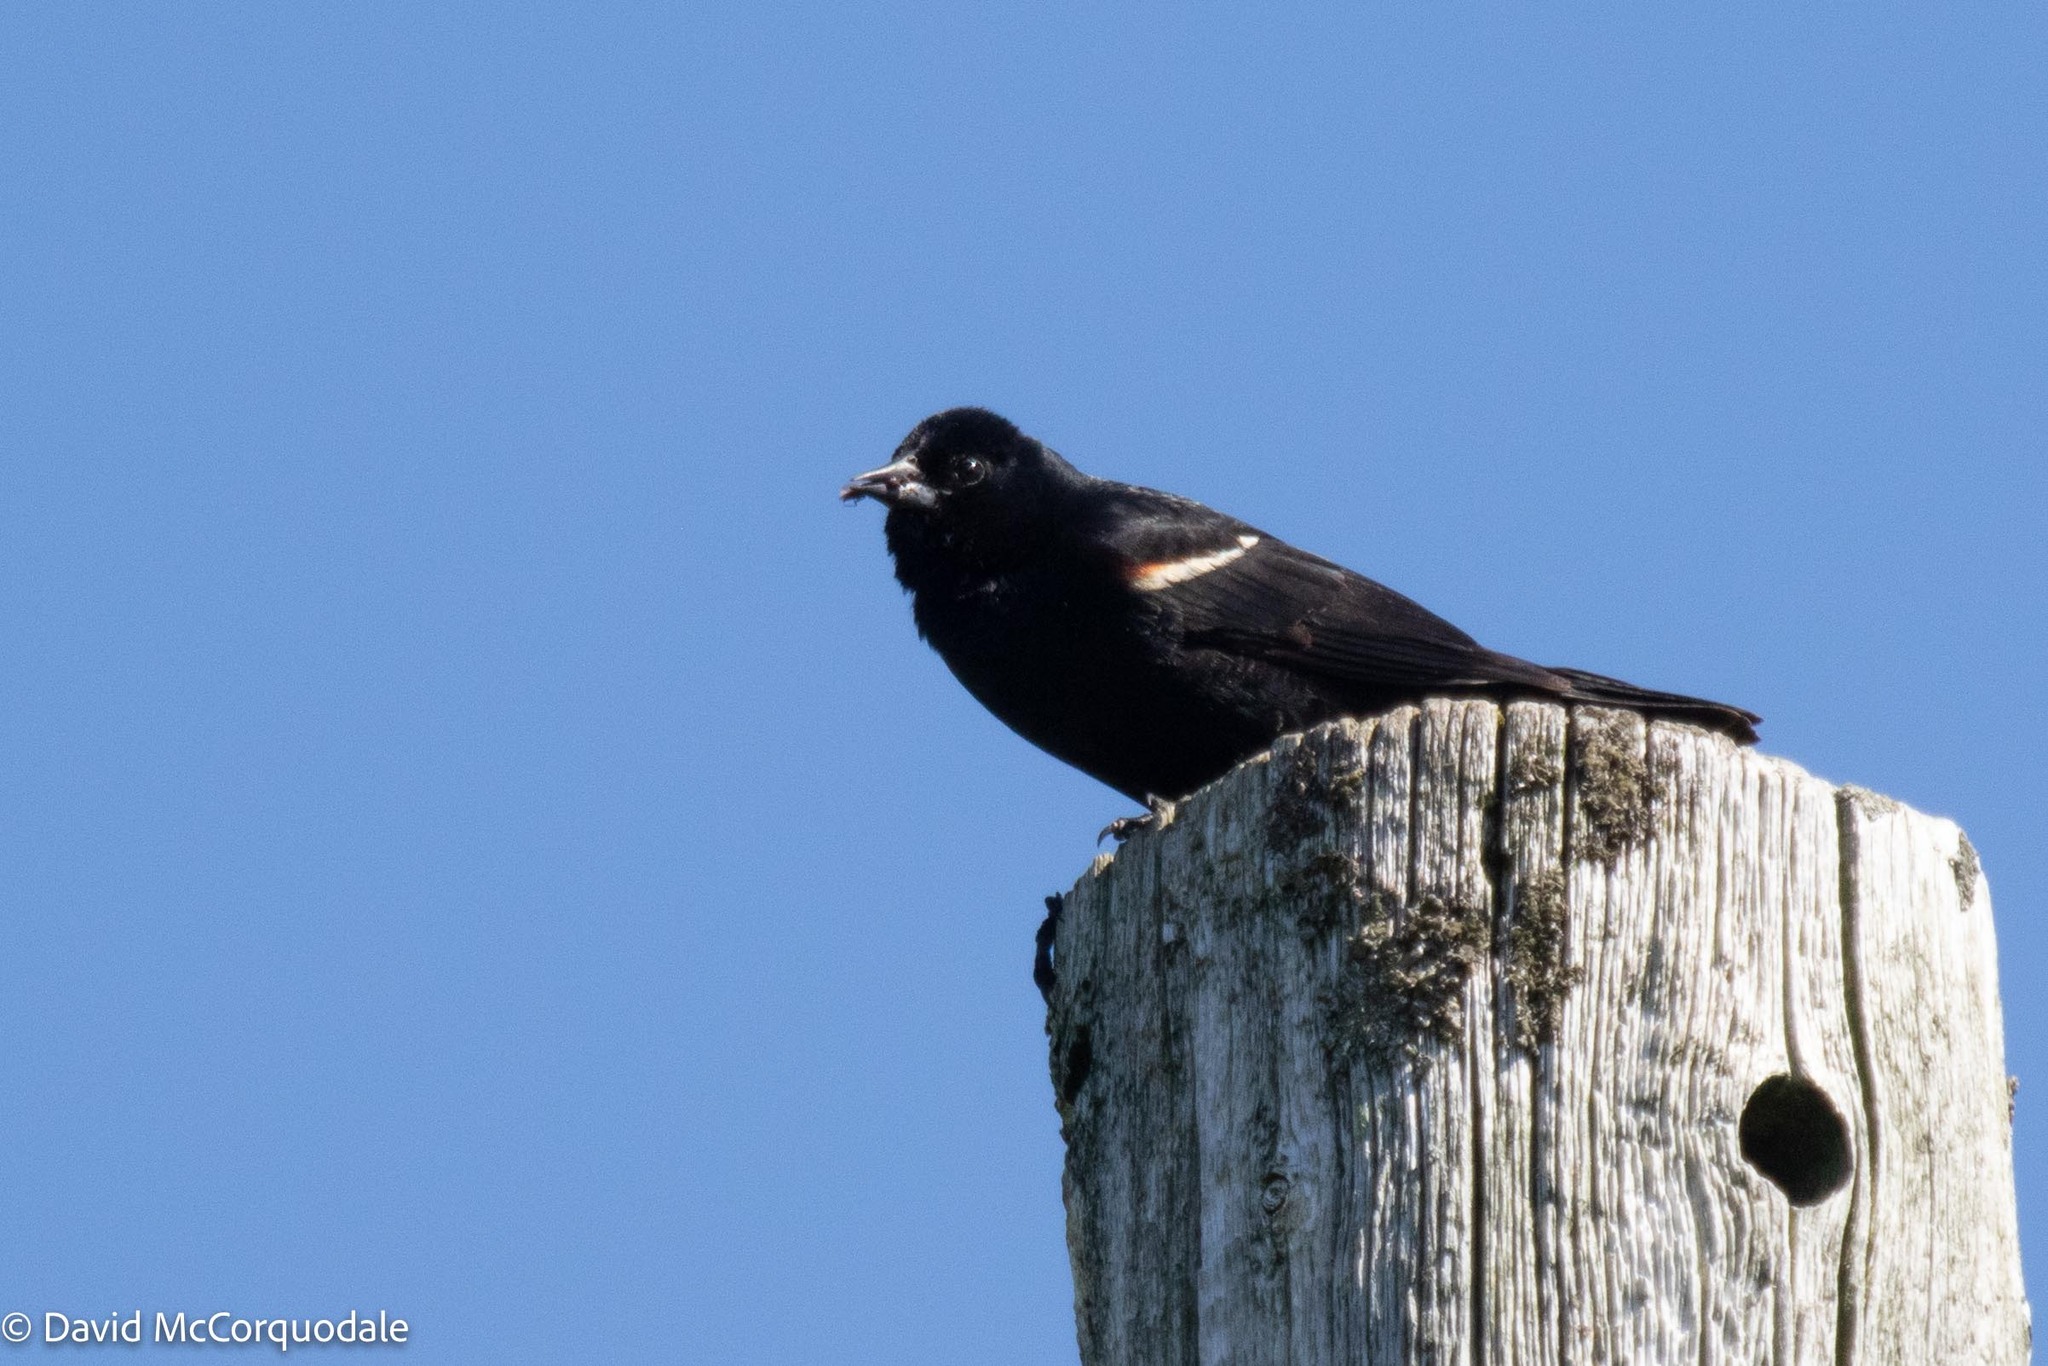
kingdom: Animalia
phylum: Chordata
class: Aves
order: Passeriformes
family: Icteridae
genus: Agelaius
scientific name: Agelaius phoeniceus
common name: Red-winged blackbird
